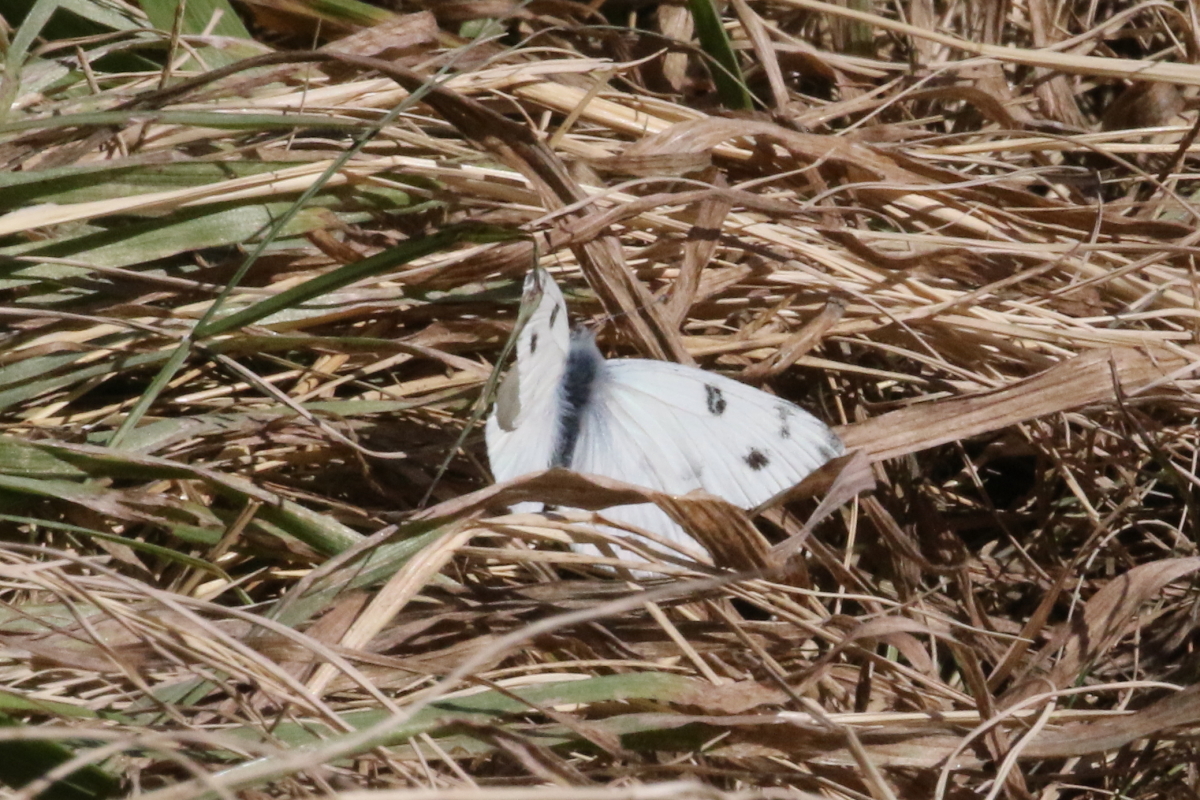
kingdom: Animalia
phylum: Arthropoda
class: Insecta
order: Lepidoptera
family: Pieridae
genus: Pontia
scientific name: Pontia protodice
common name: Checkered white
